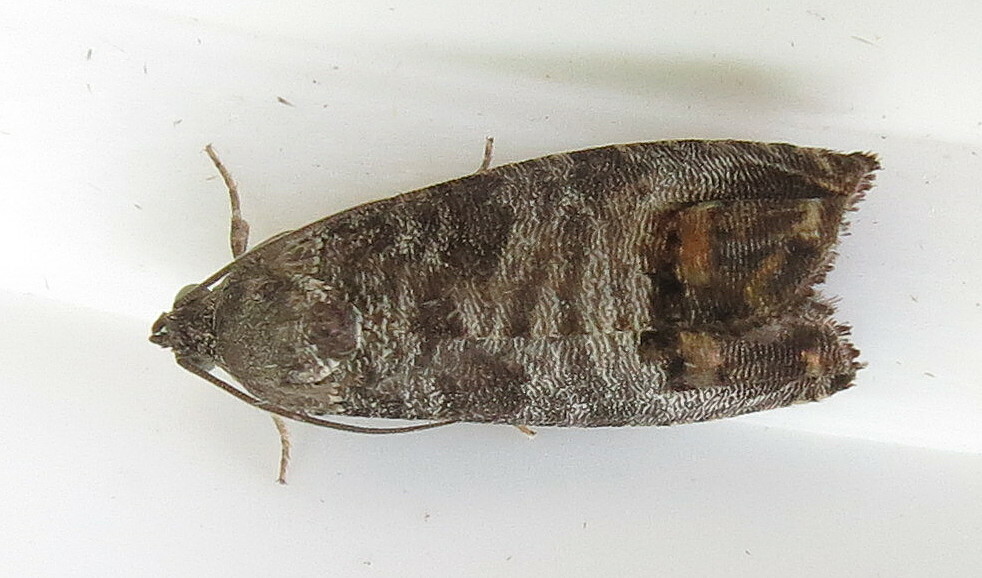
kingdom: Animalia
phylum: Arthropoda
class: Insecta
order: Lepidoptera
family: Tortricidae
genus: Cydia
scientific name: Cydia pomonella
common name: Codling moth
